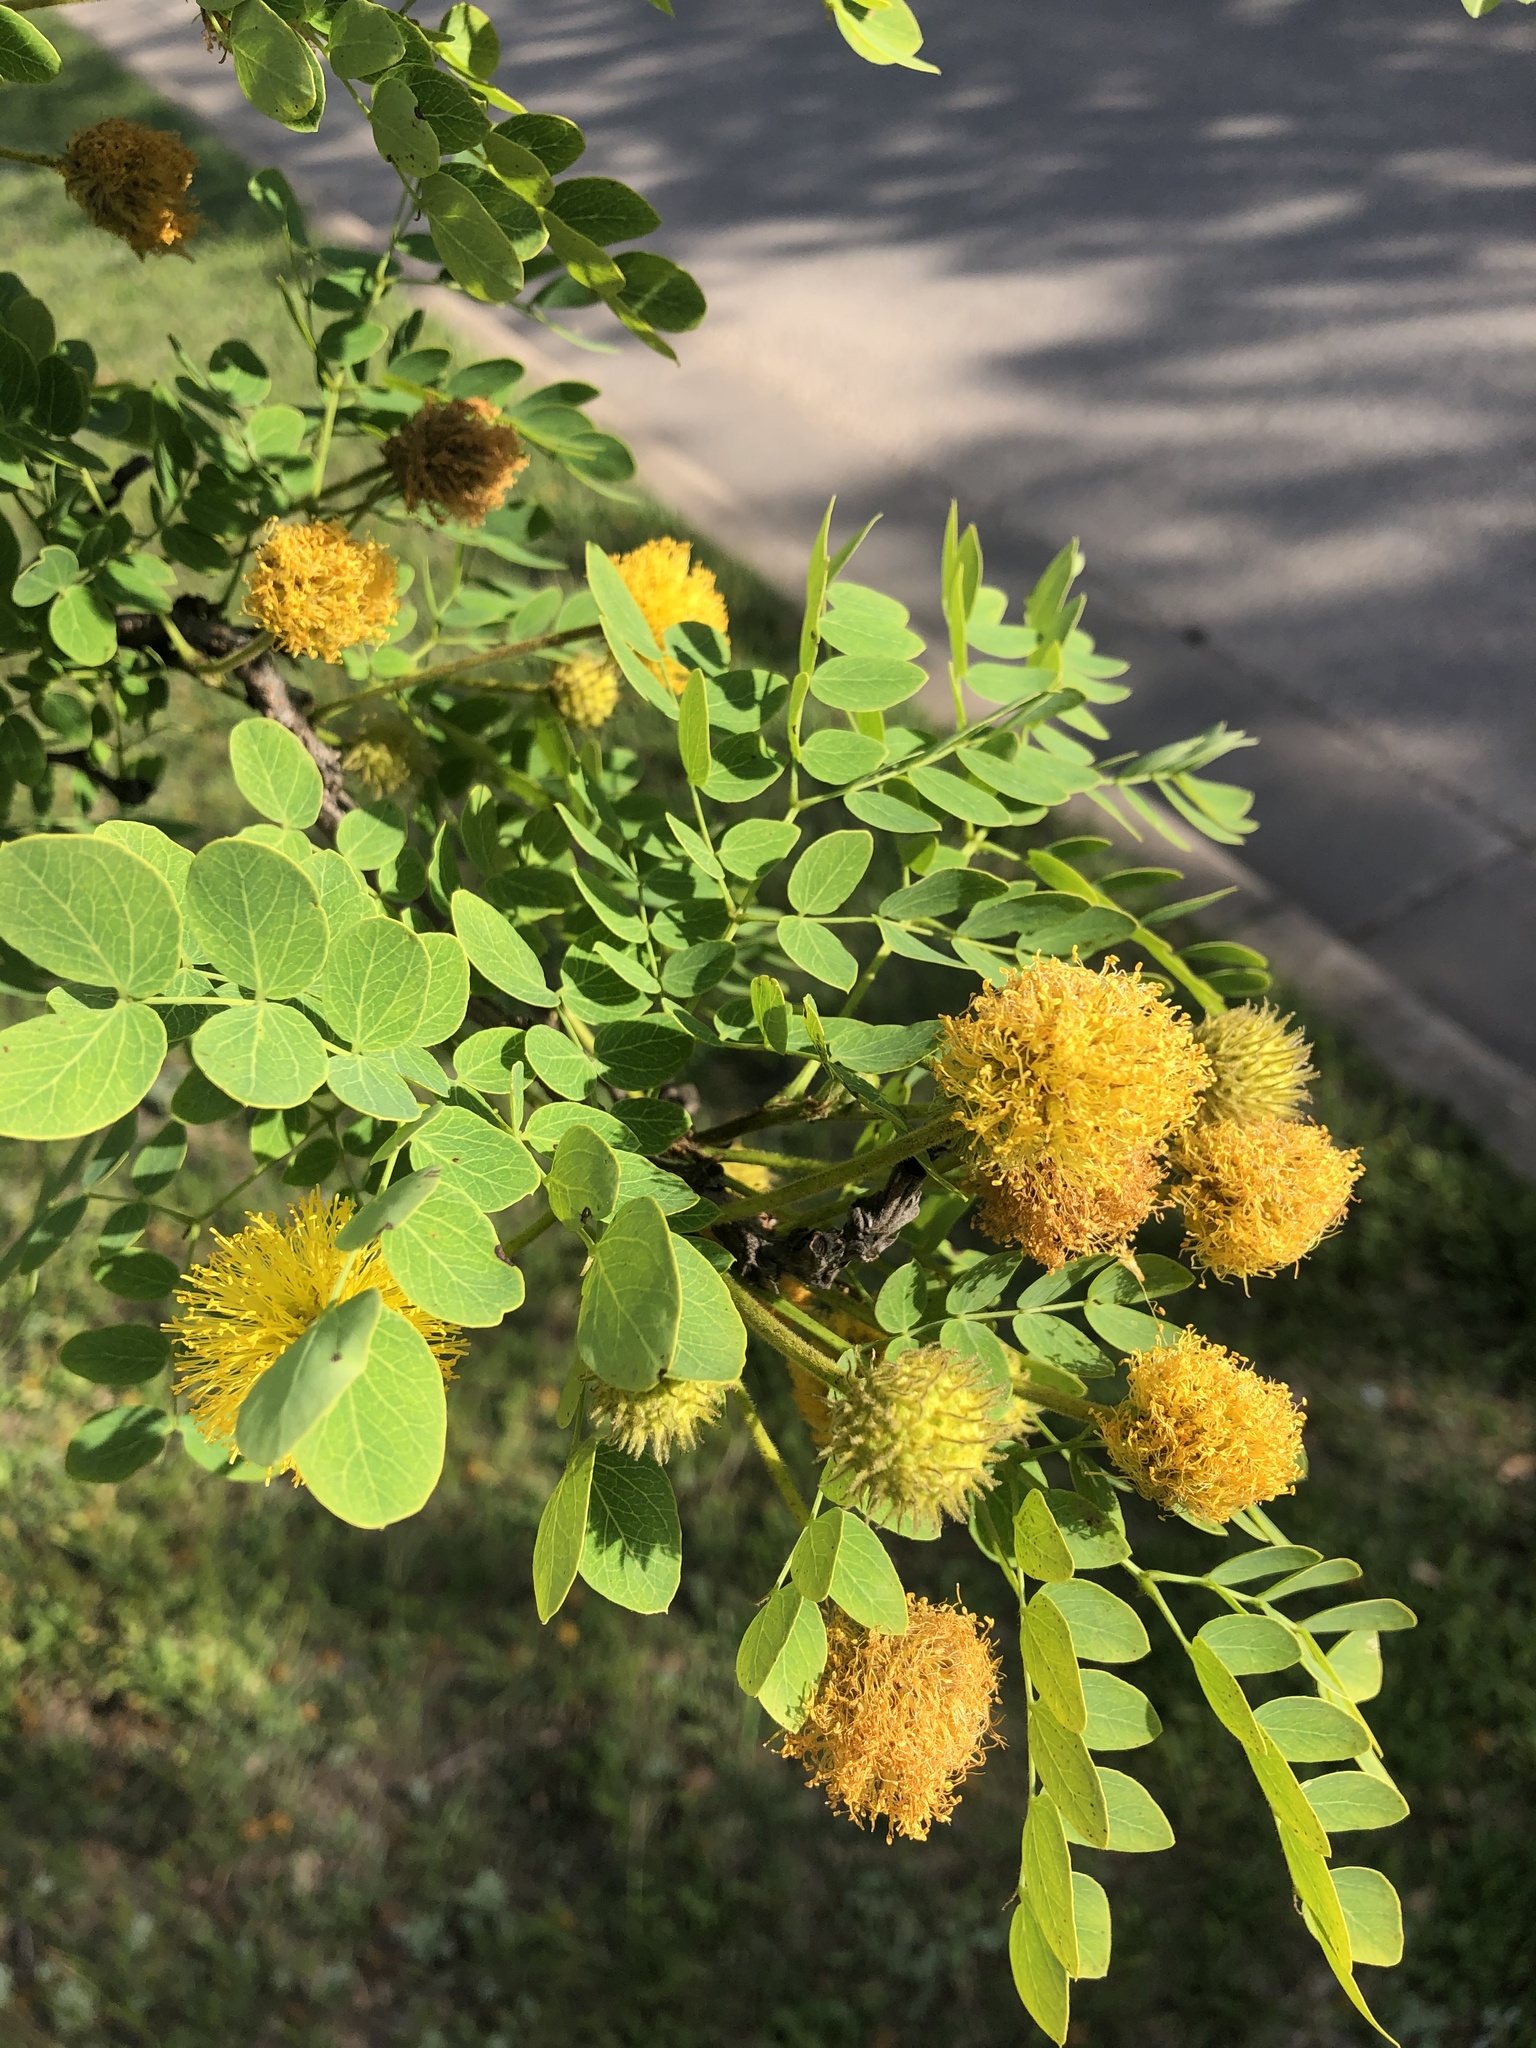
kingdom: Plantae
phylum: Tracheophyta
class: Magnoliopsida
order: Fabales
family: Fabaceae
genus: Leucaena
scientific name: Leucaena retusa
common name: Littleleaf leadtree
